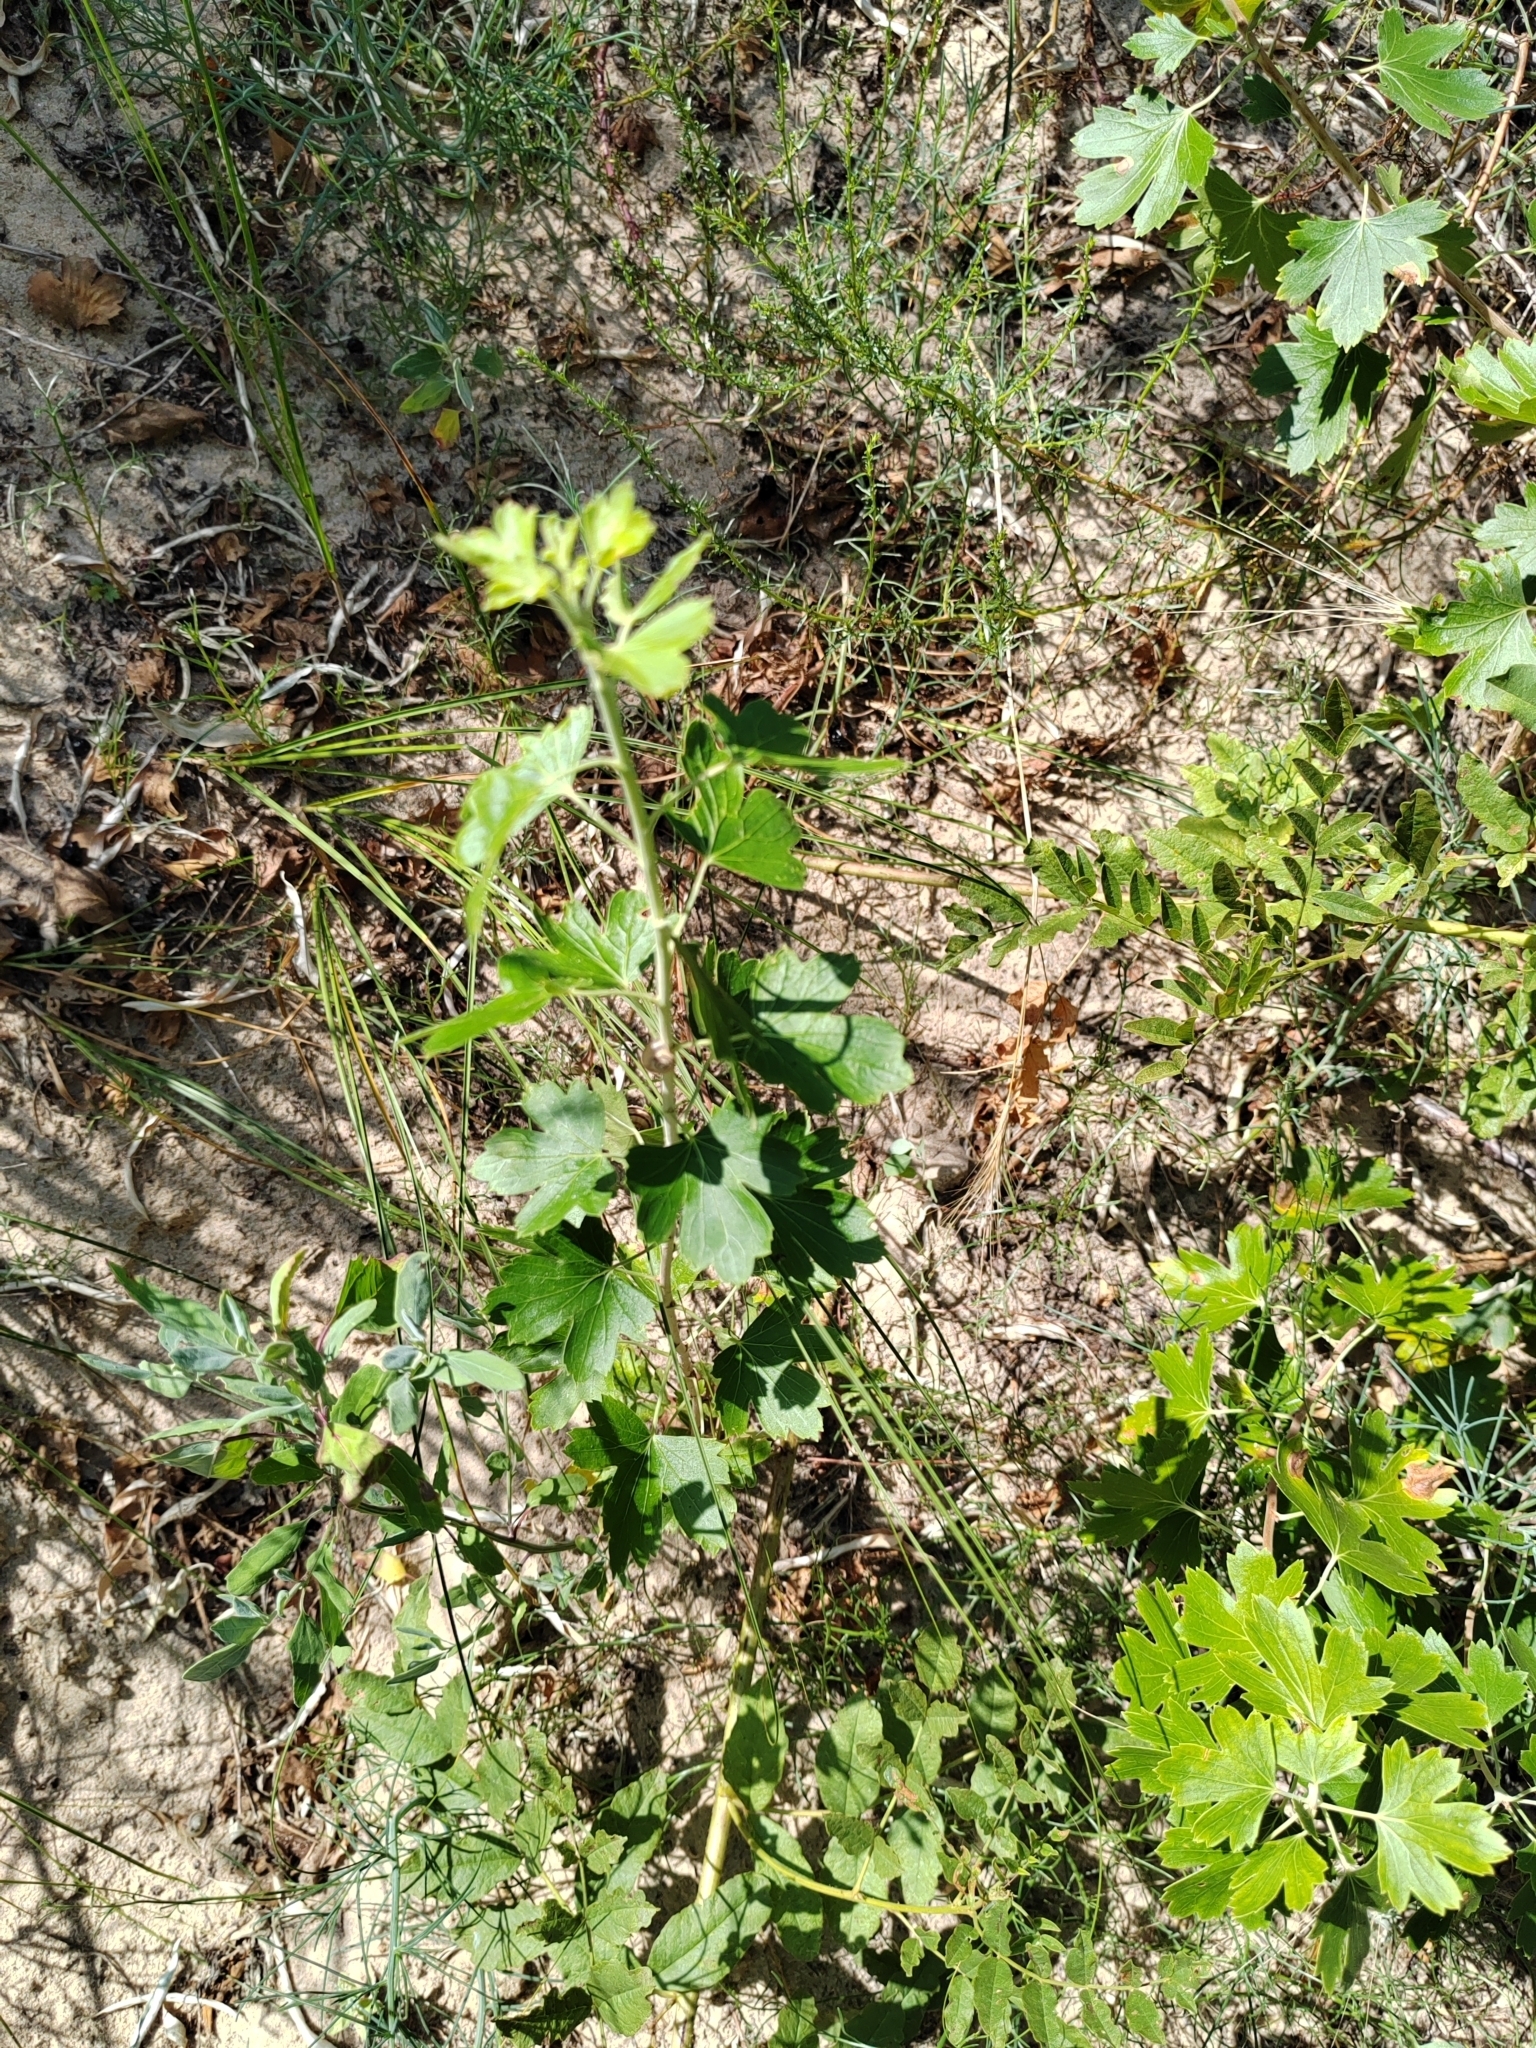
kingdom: Plantae
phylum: Tracheophyta
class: Magnoliopsida
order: Saxifragales
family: Grossulariaceae
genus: Ribes
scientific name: Ribes aureum
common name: Golden currant
